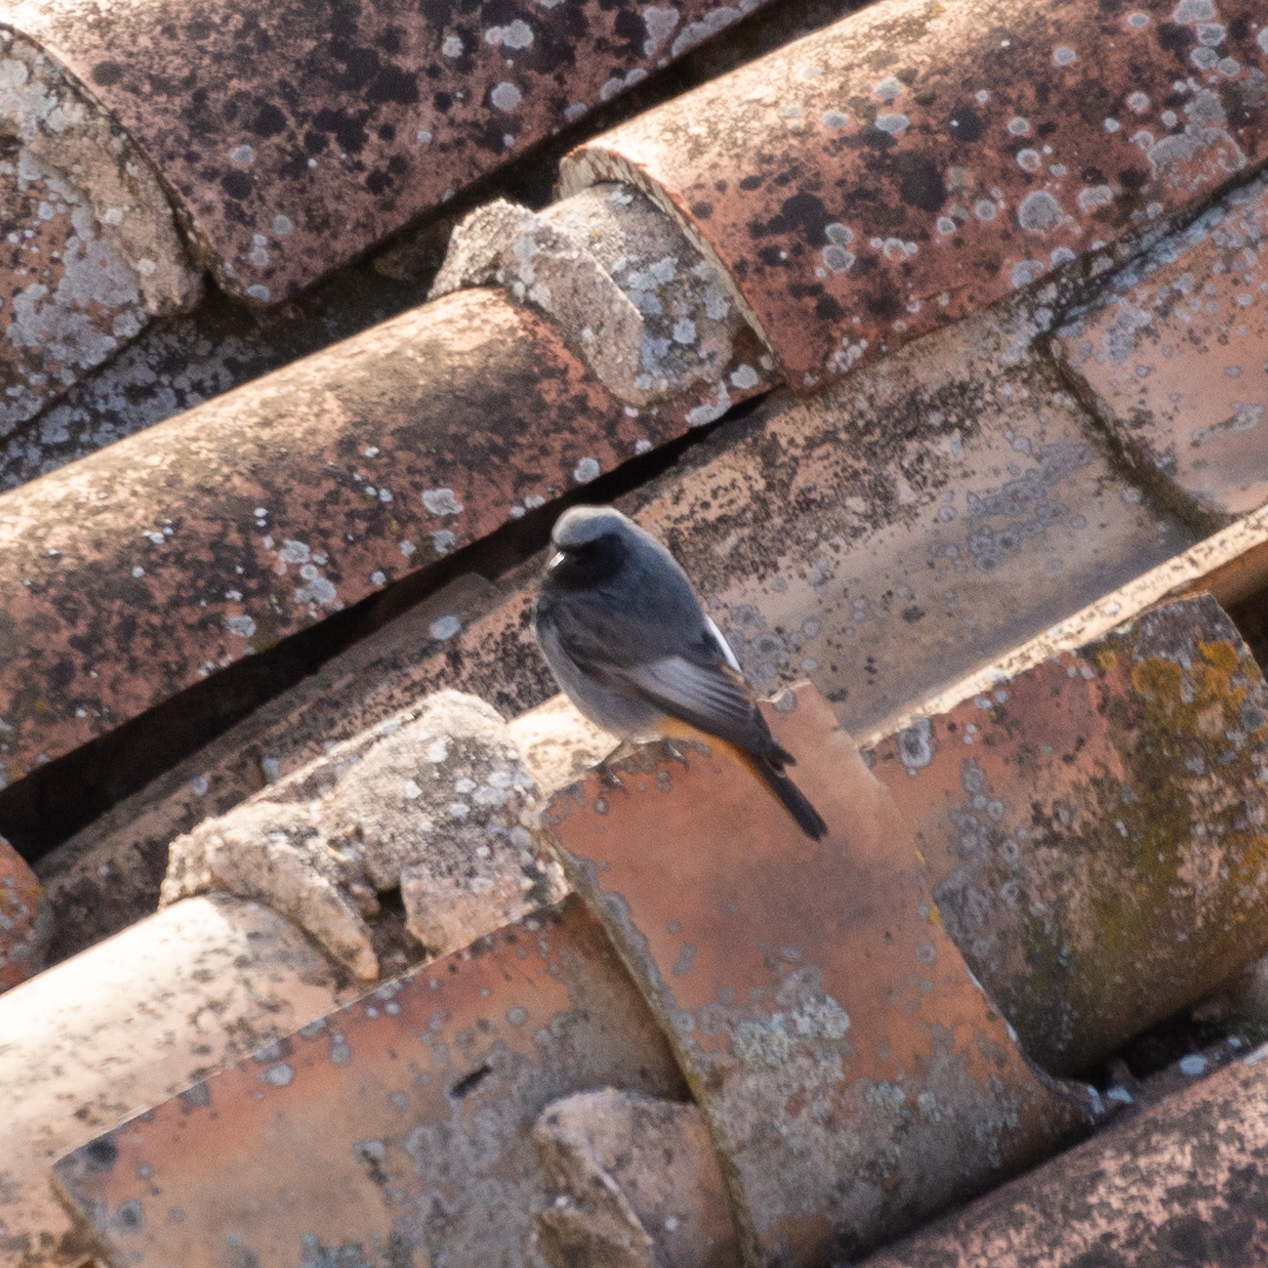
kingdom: Animalia
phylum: Chordata
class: Aves
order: Passeriformes
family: Muscicapidae
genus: Phoenicurus
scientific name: Phoenicurus ochruros
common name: Black redstart
